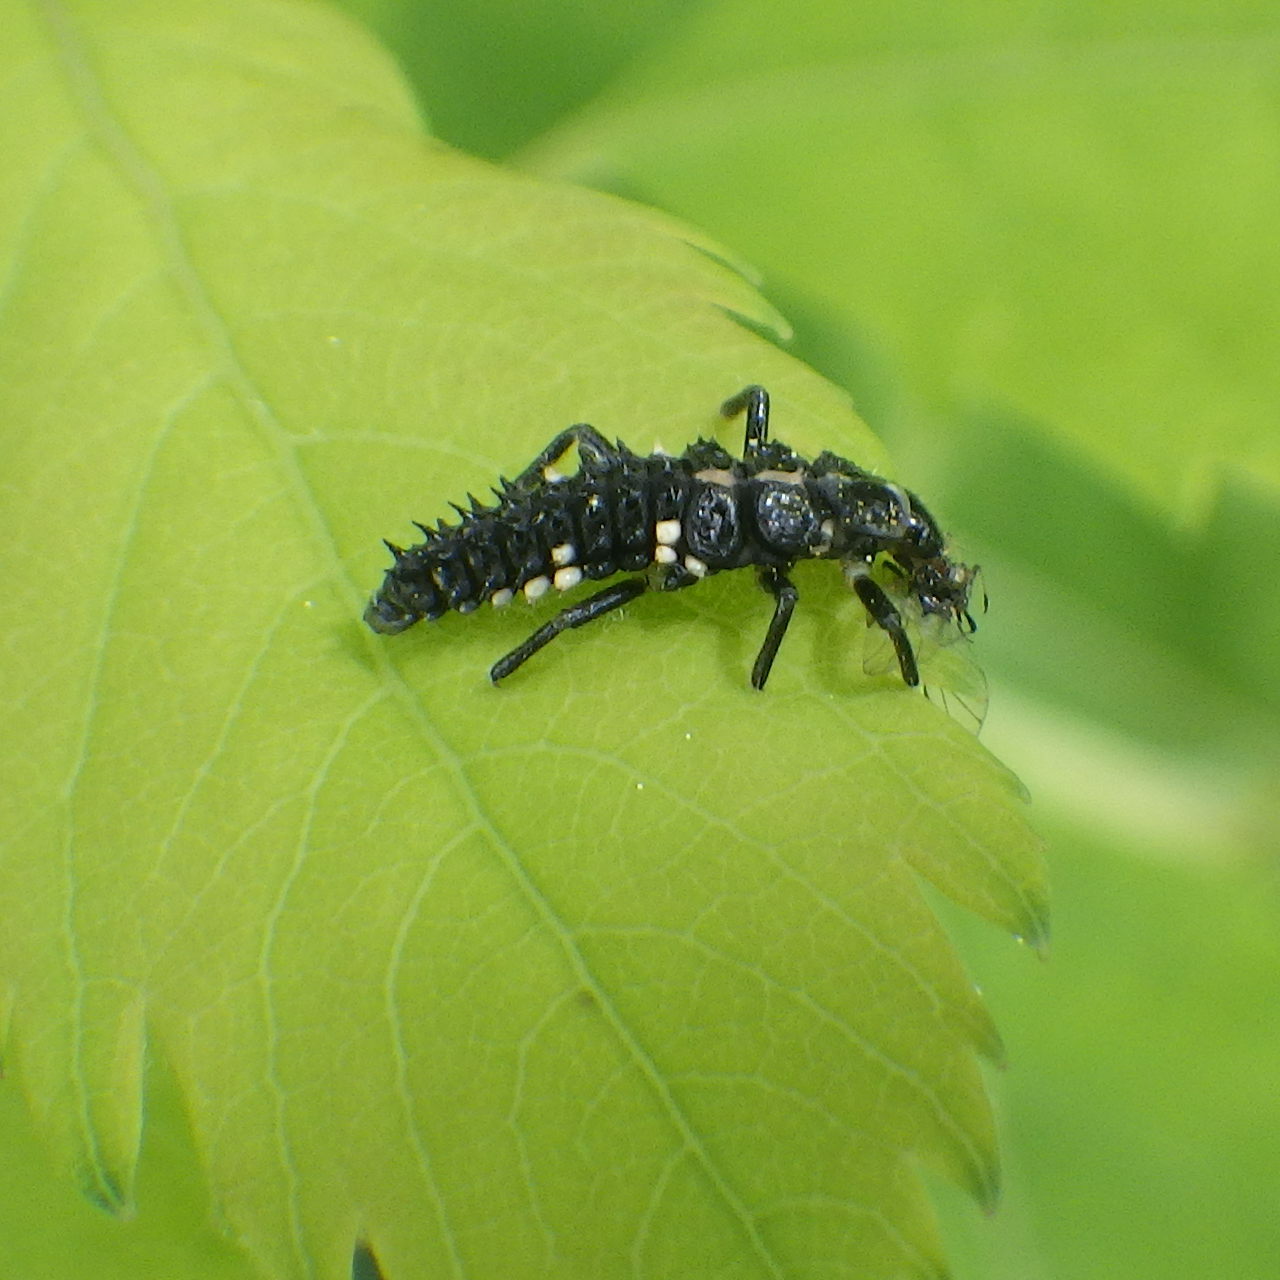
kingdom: Animalia
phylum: Arthropoda
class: Insecta
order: Coleoptera
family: Coccinellidae
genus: Calvia
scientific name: Calvia quatuordecimguttata
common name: Cream-spot ladybird
